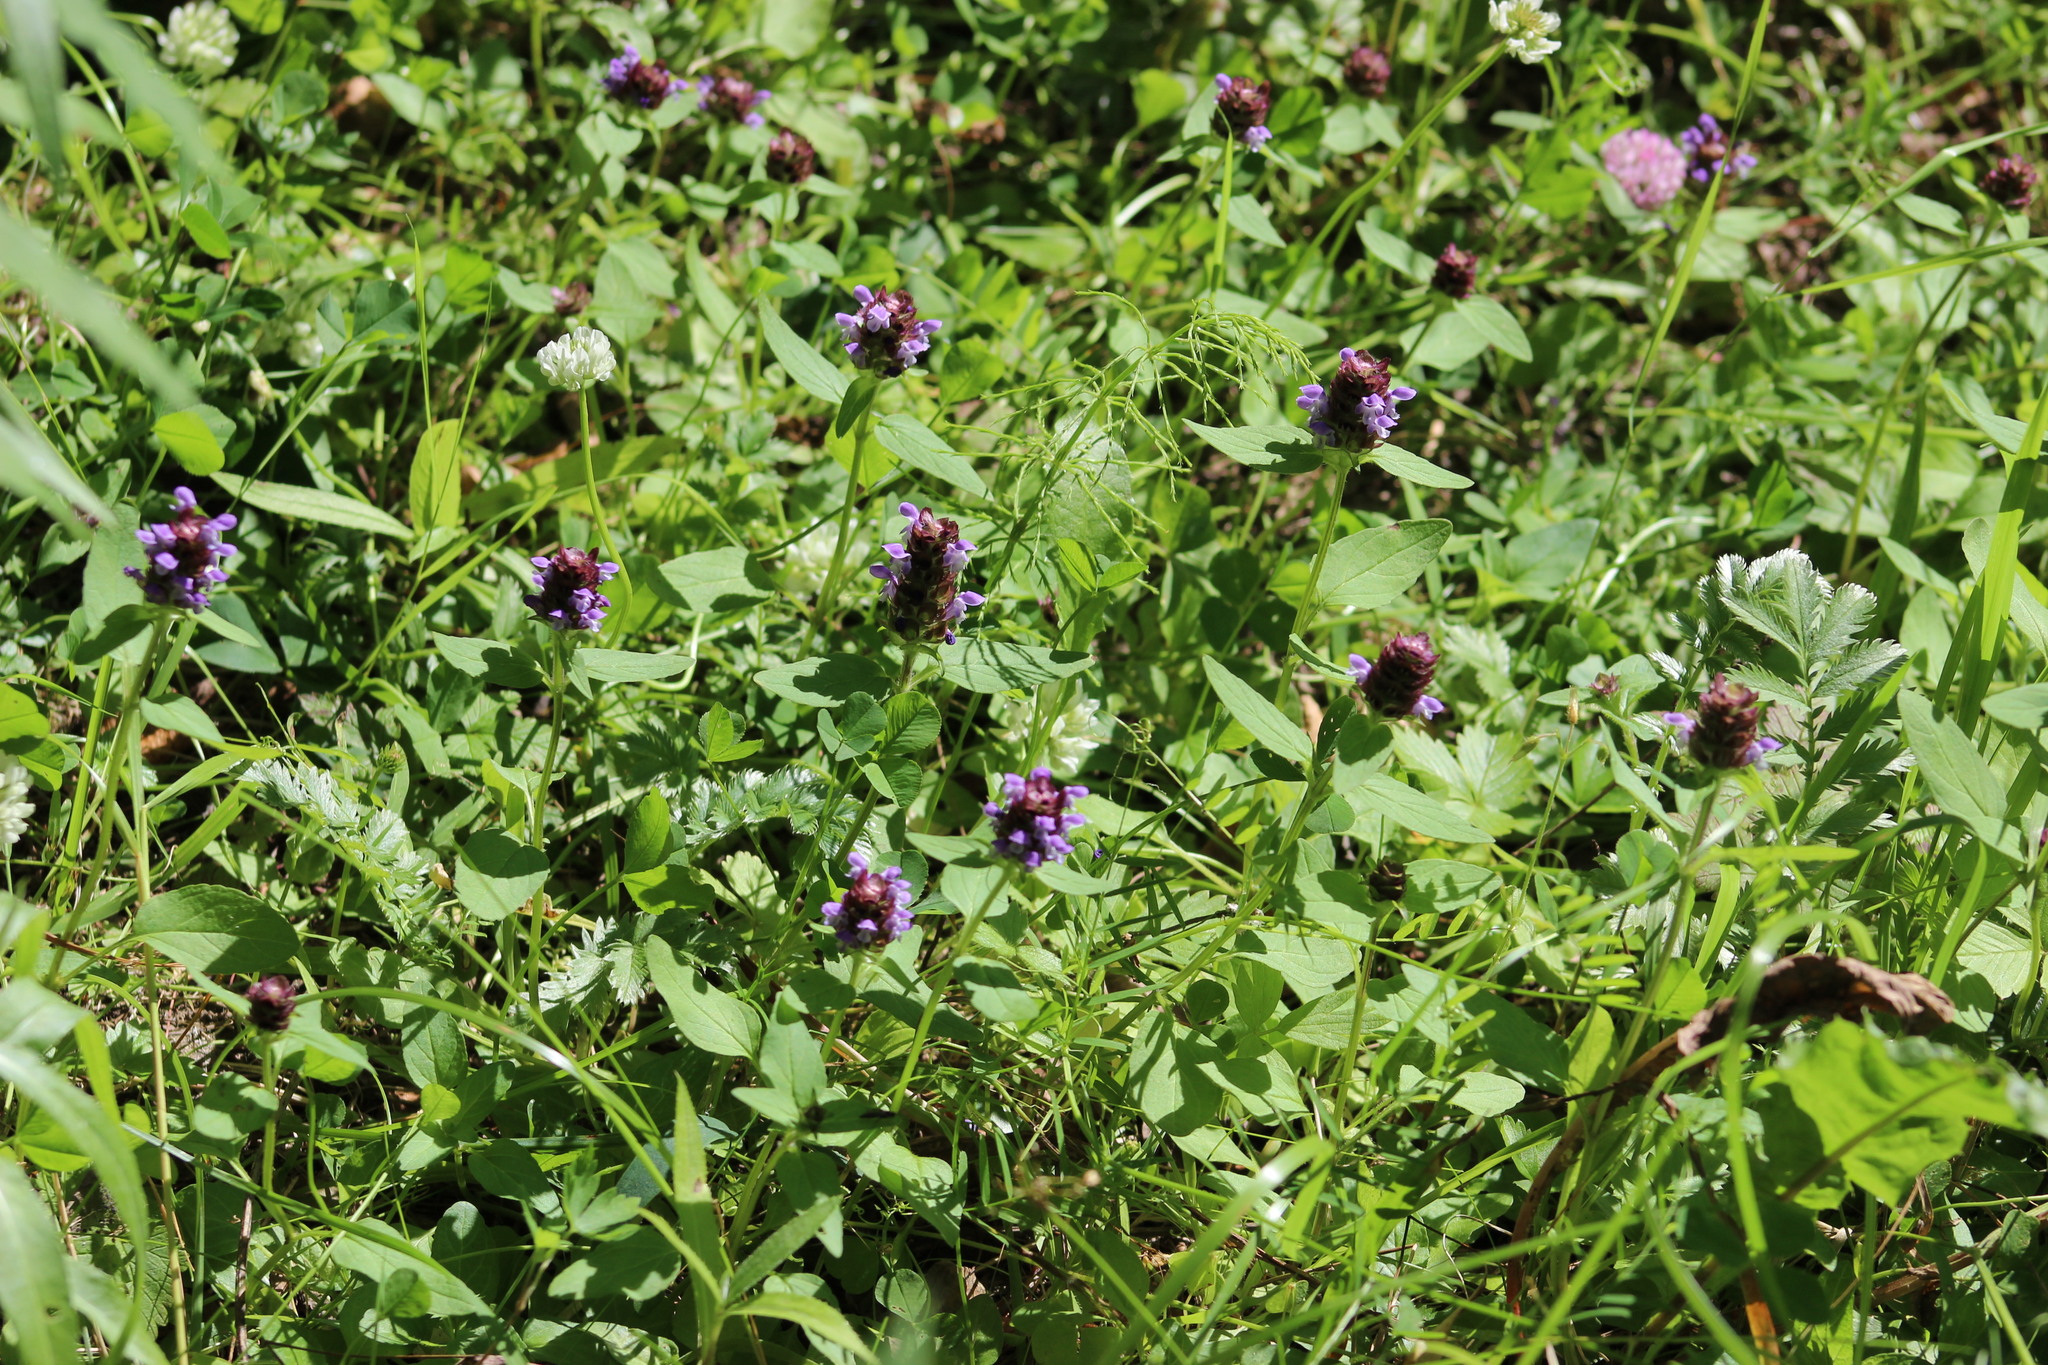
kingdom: Plantae
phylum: Tracheophyta
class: Magnoliopsida
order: Lamiales
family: Lamiaceae
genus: Prunella
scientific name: Prunella vulgaris
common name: Heal-all
